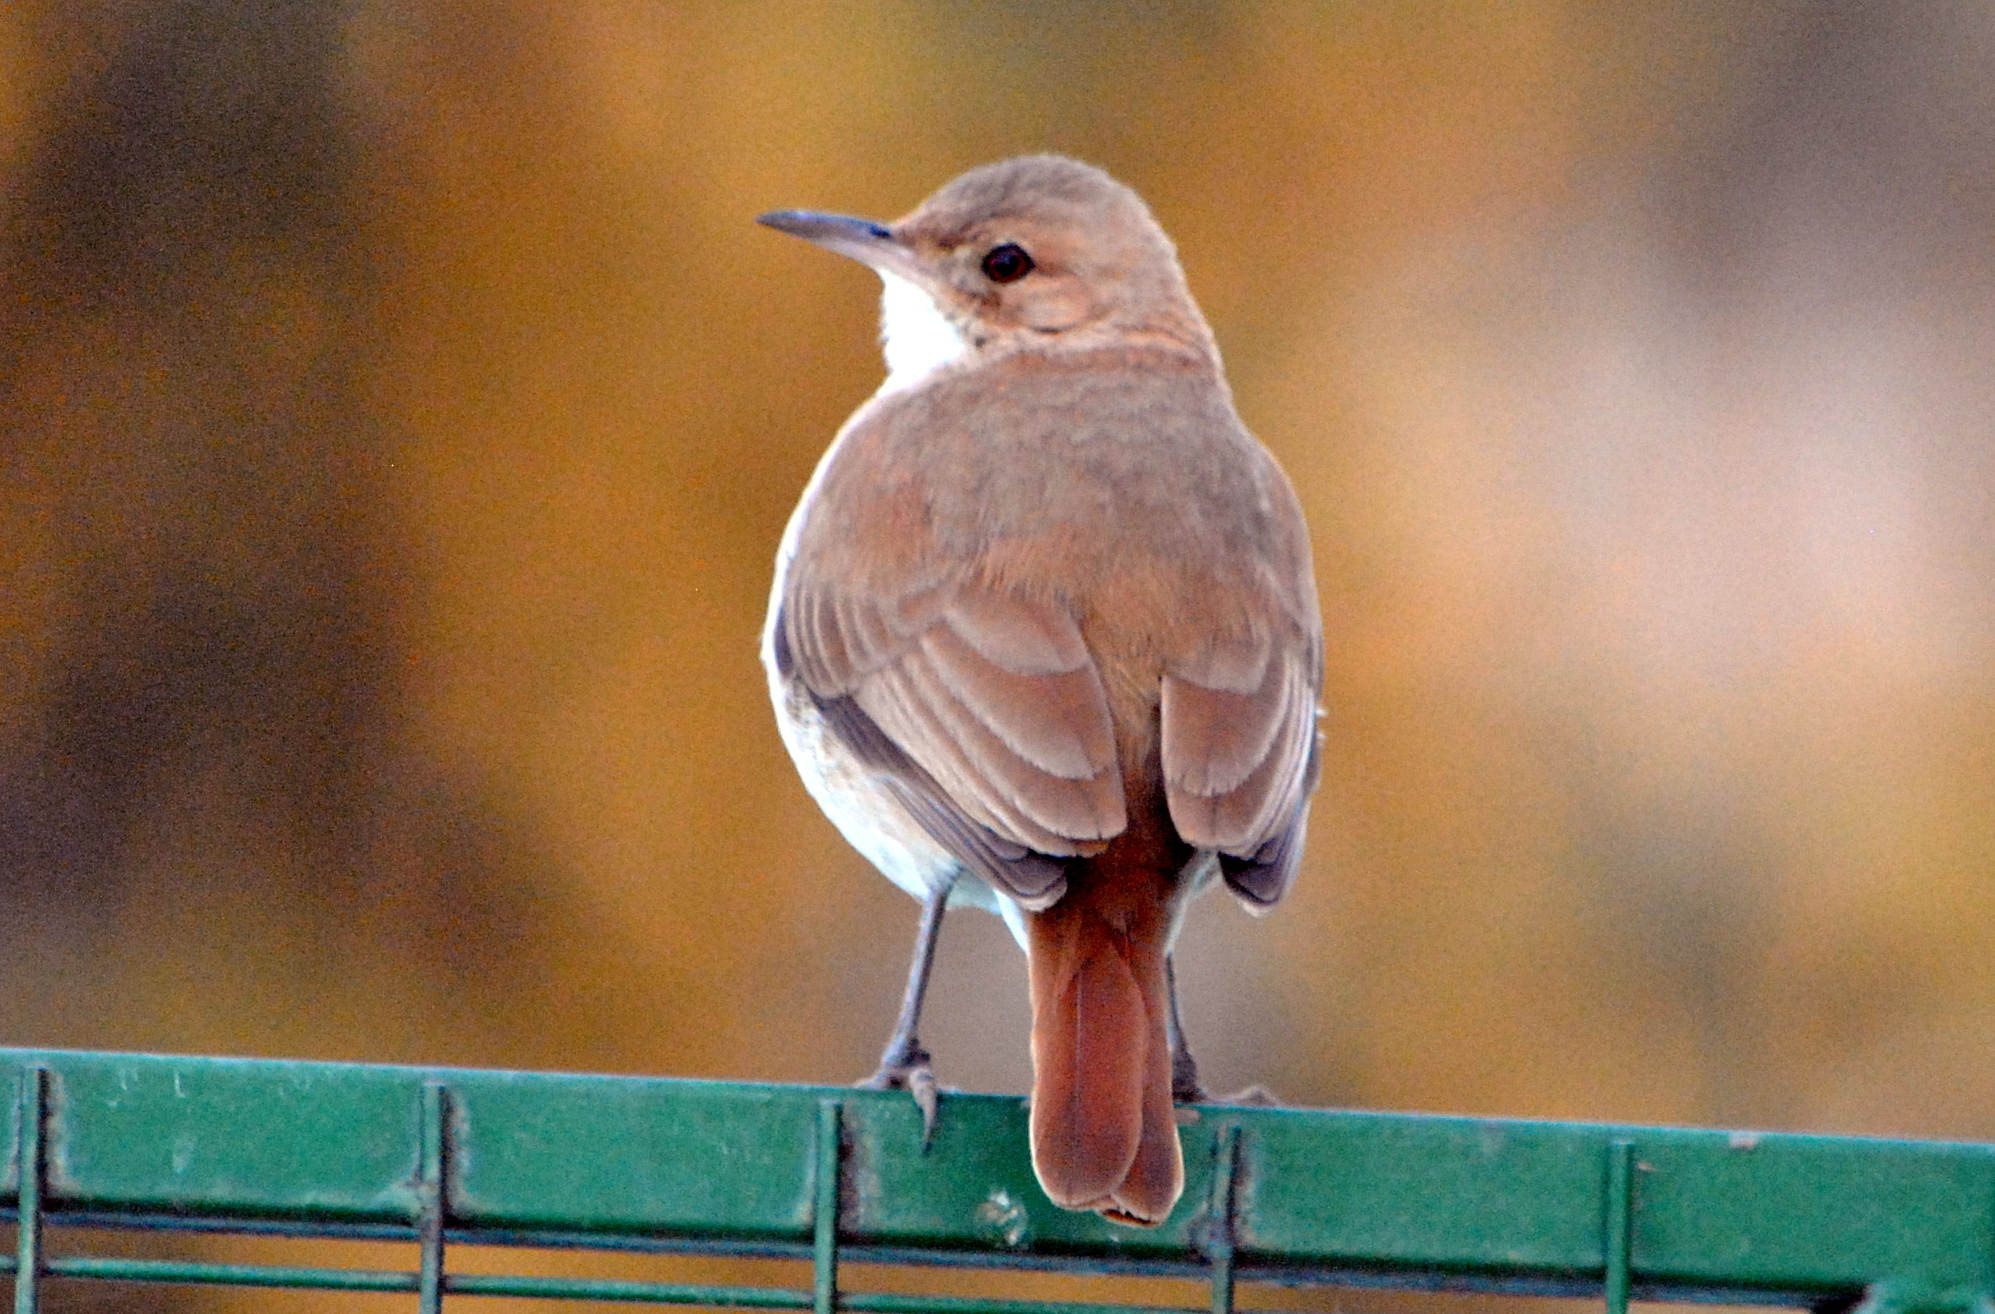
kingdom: Animalia
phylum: Chordata
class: Aves
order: Passeriformes
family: Furnariidae
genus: Furnarius
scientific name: Furnarius rufus
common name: Rufous hornero
